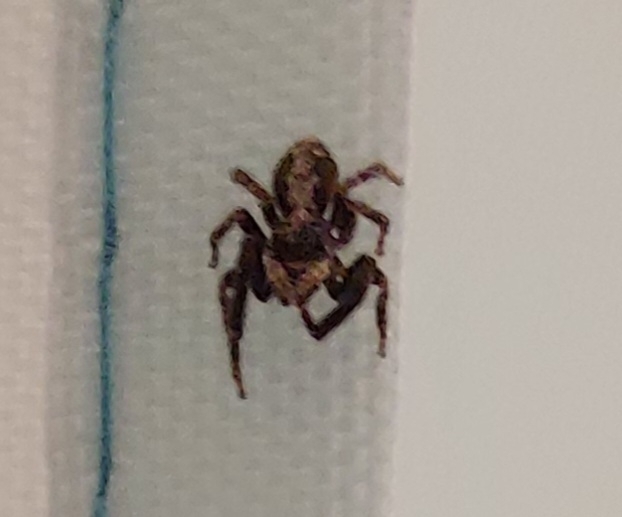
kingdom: Animalia
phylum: Arthropoda
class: Arachnida
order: Araneae
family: Salticidae
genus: Pseudeuophrys
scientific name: Pseudeuophrys lanigera
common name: Jumping spider
